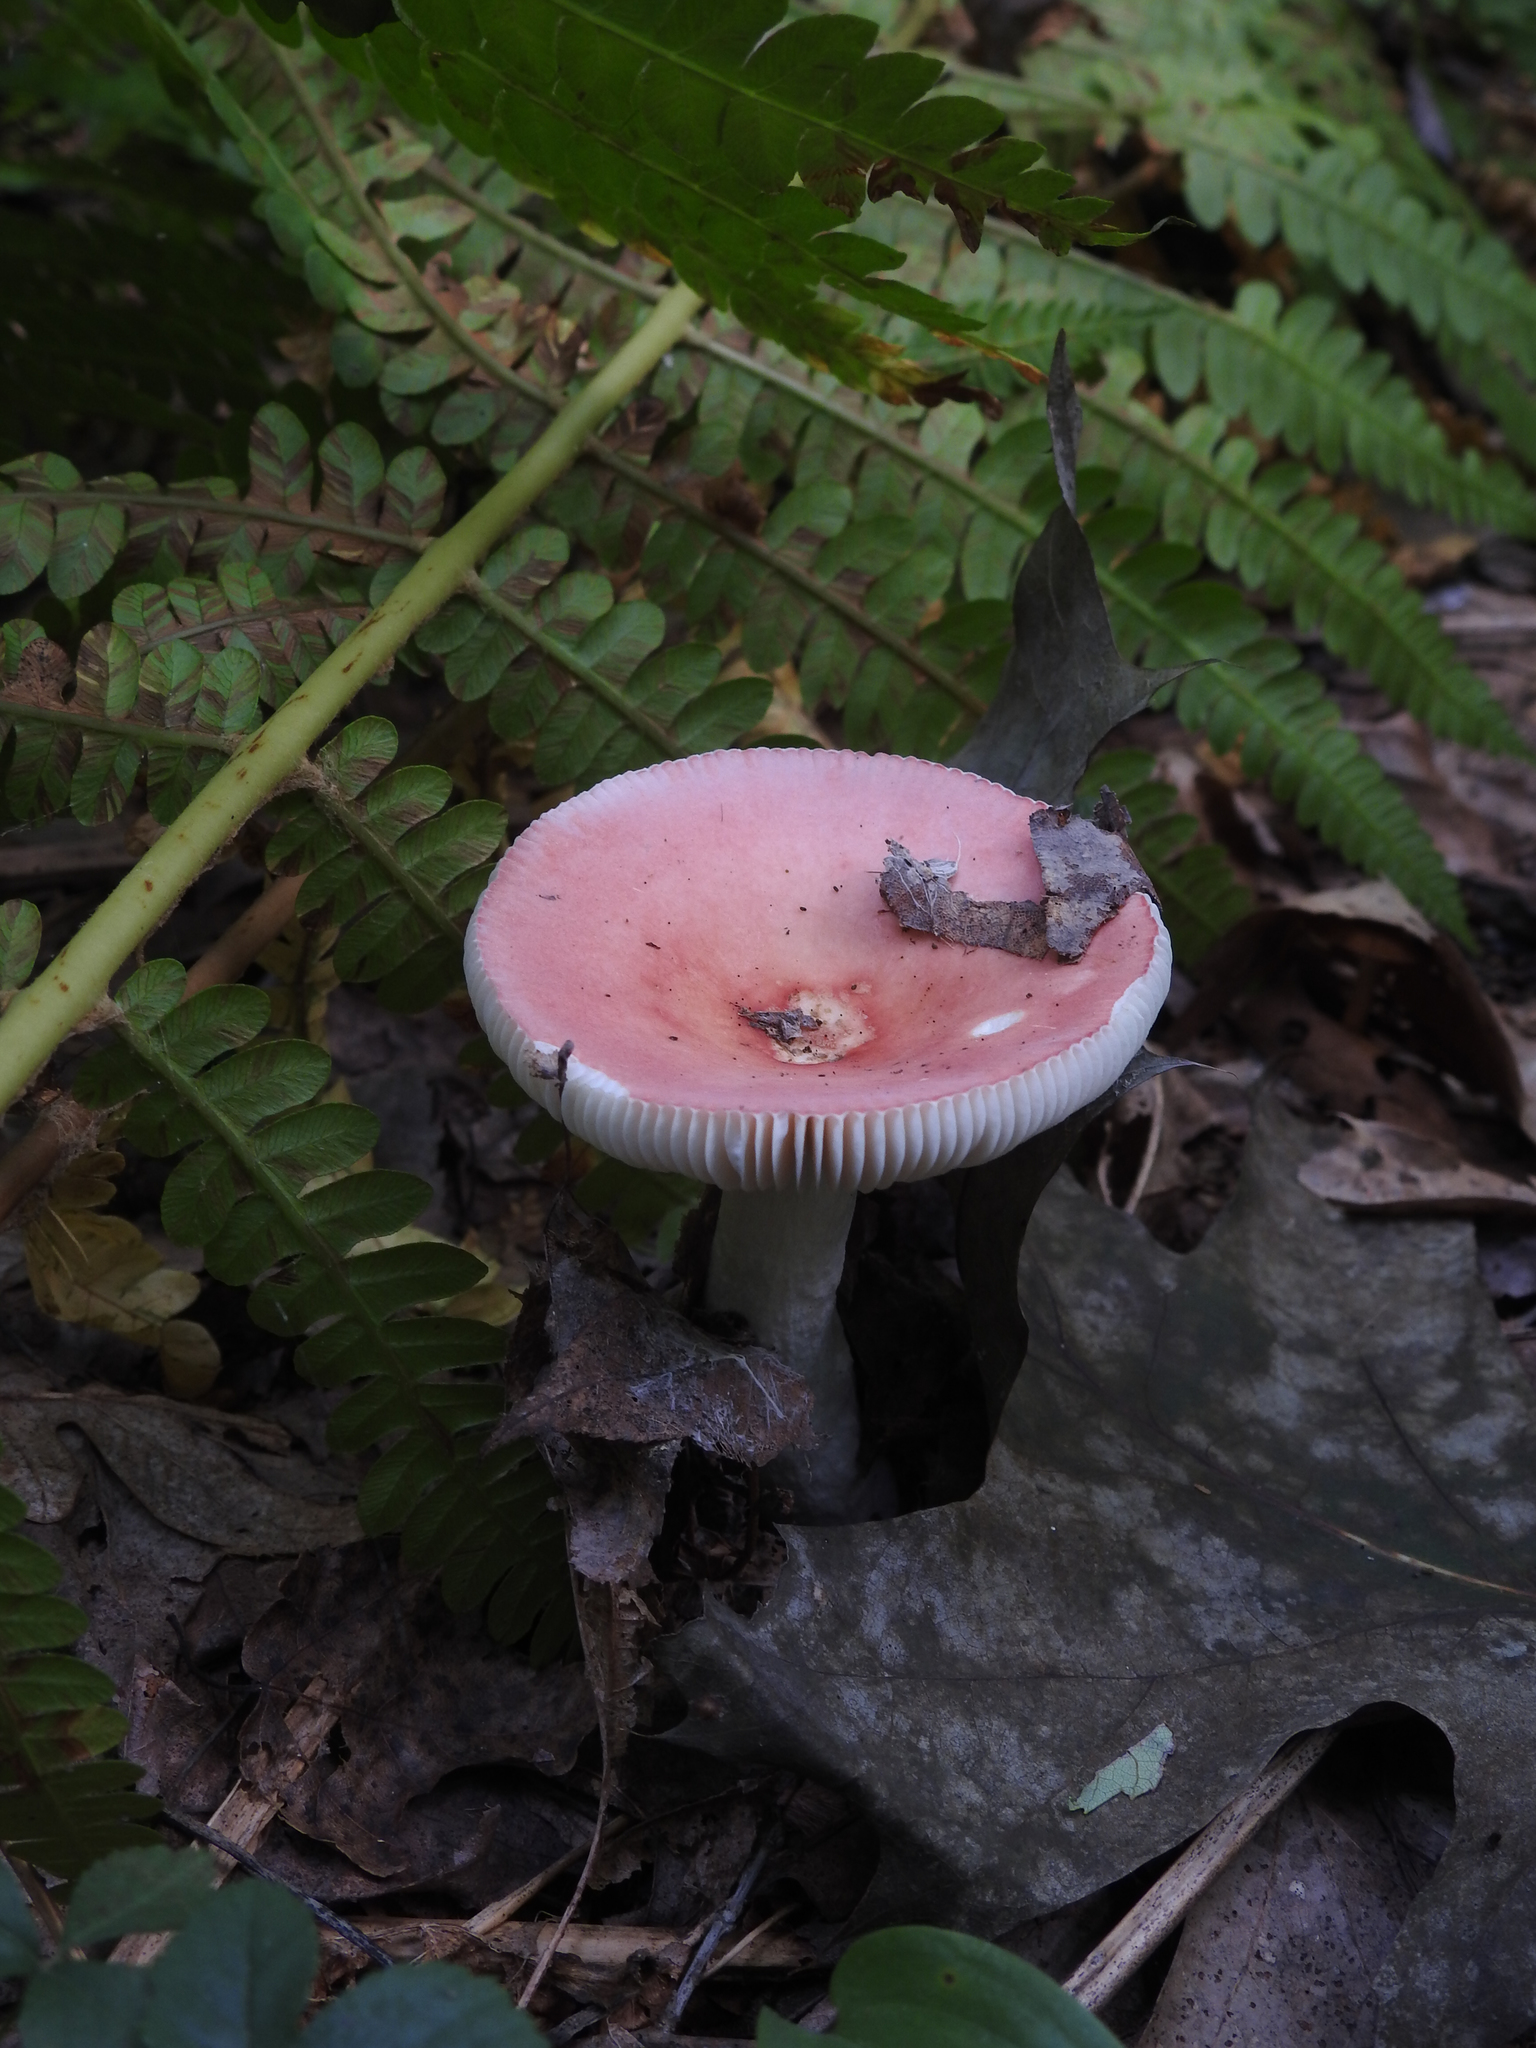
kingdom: Fungi
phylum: Basidiomycota
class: Agaricomycetes
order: Russulales
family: Russulaceae
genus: Russula
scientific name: Russula
